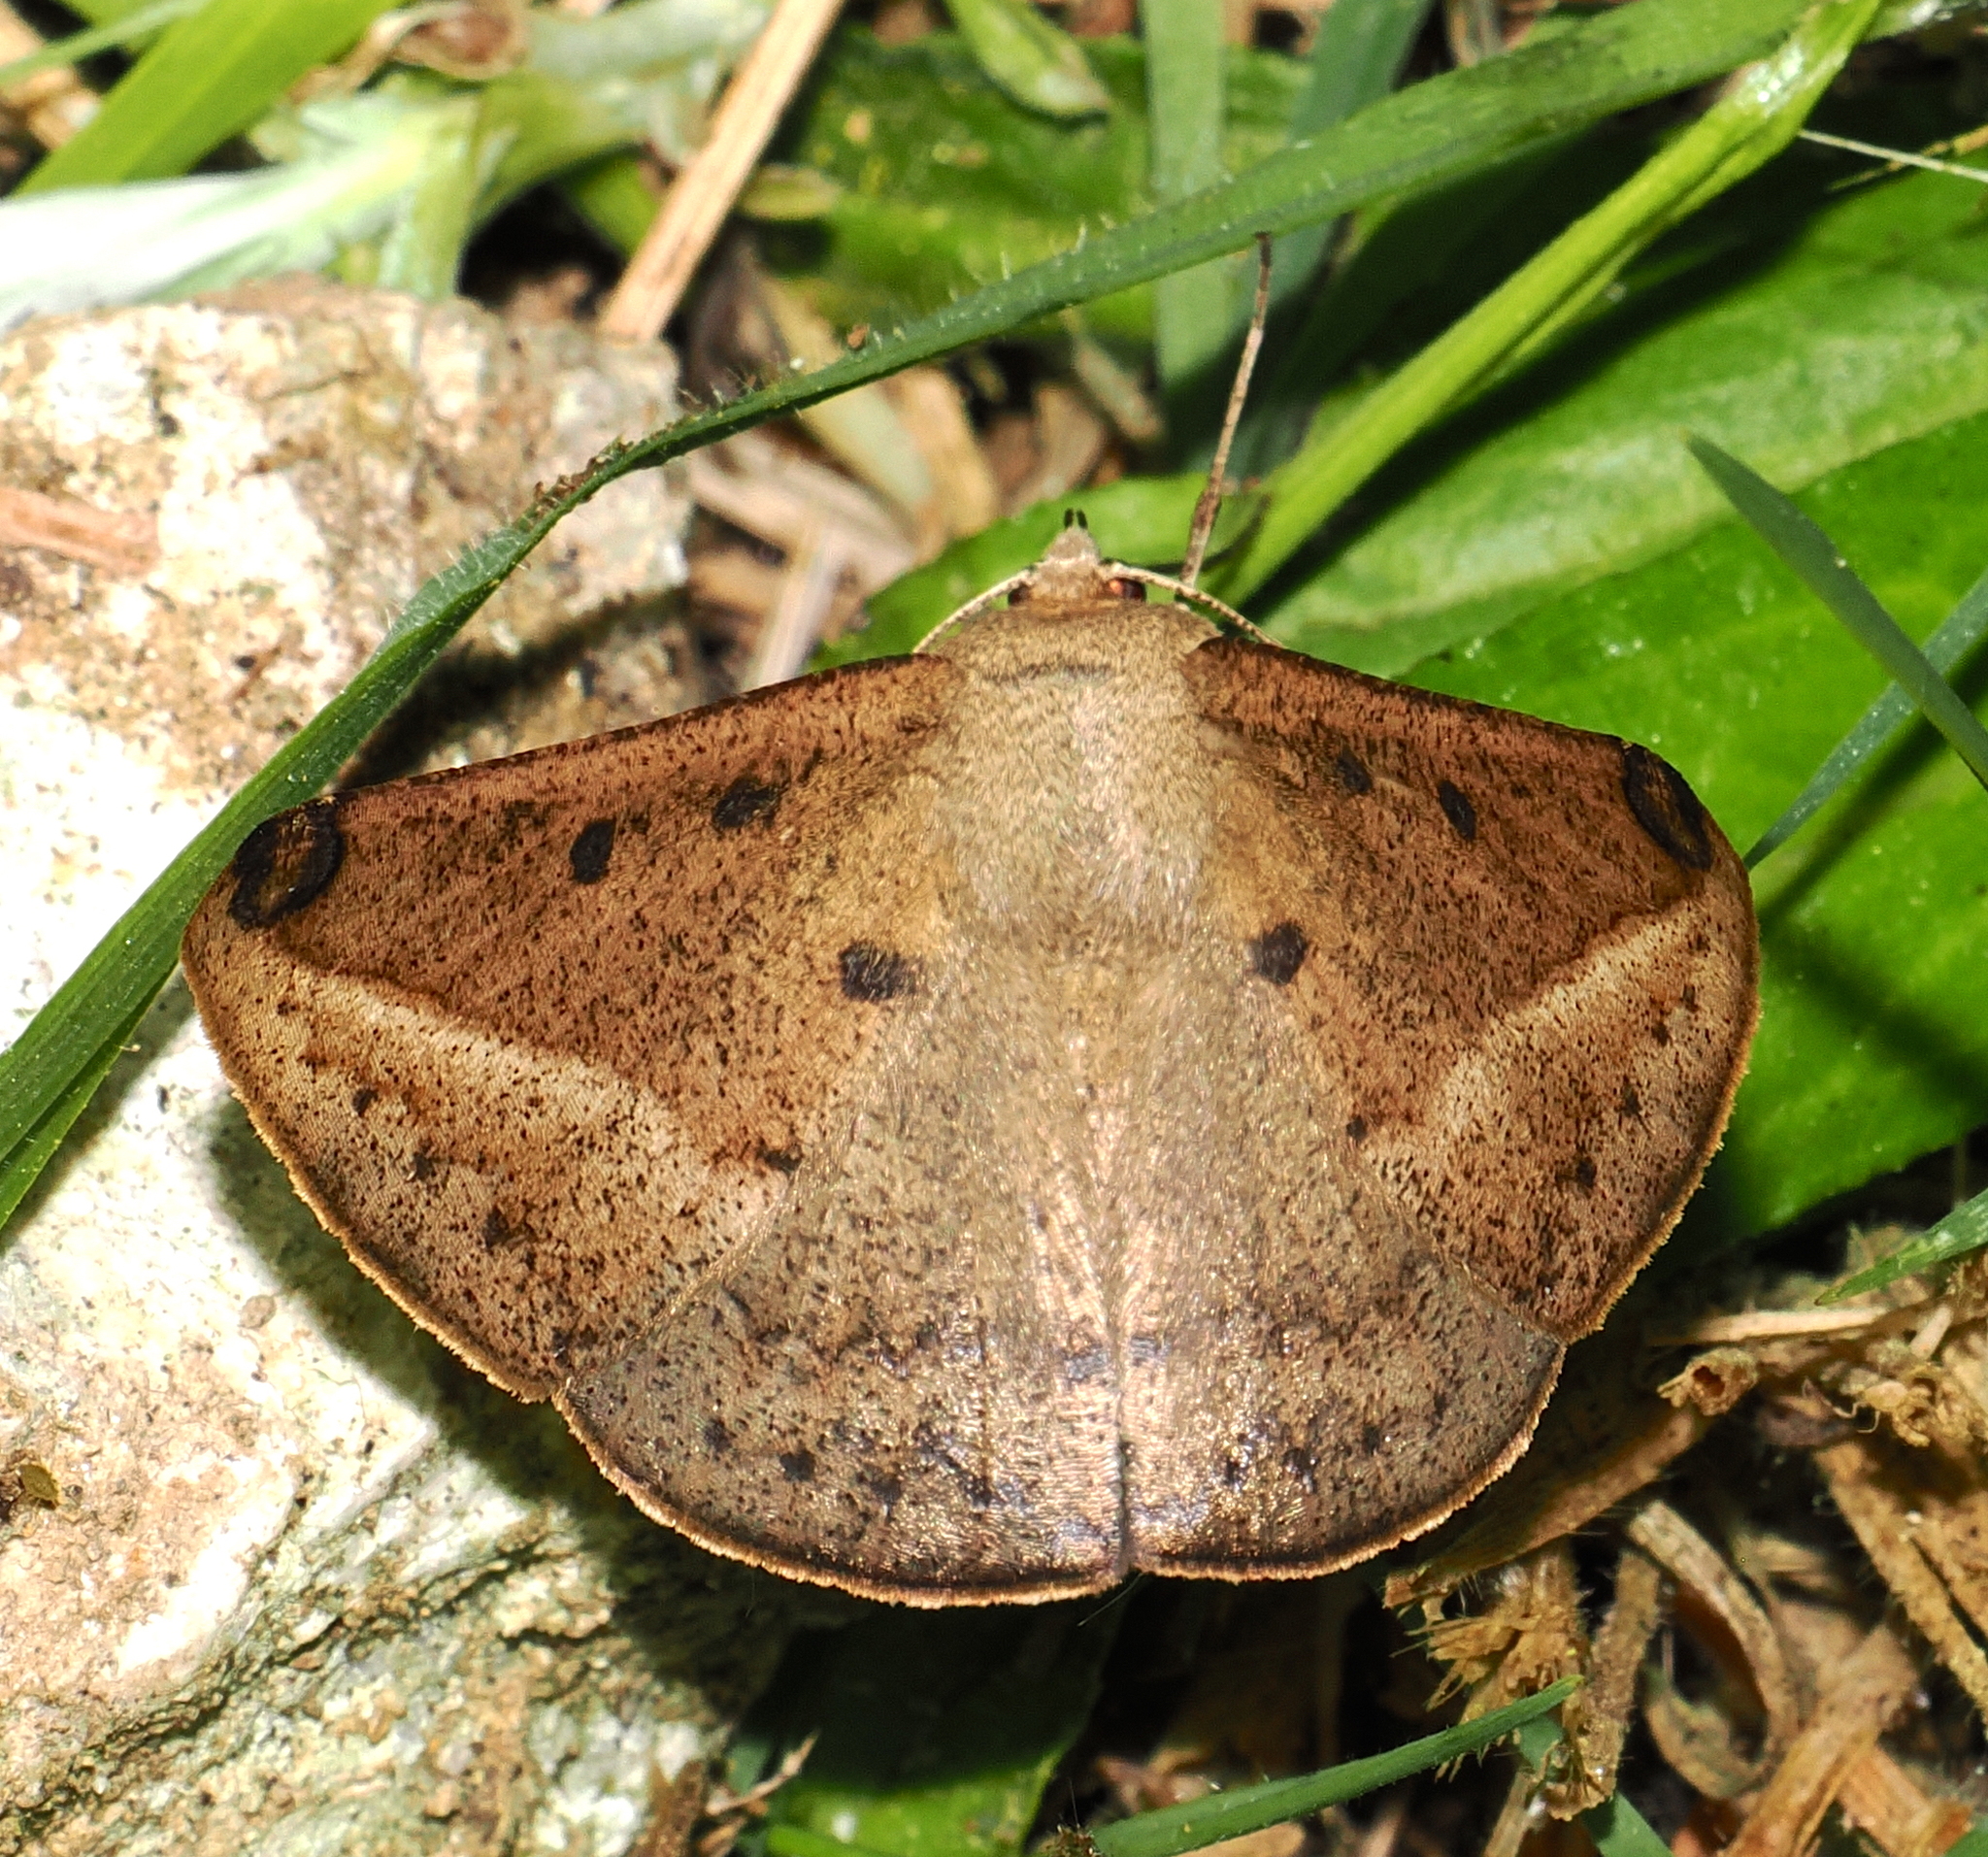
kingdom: Animalia
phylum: Arthropoda
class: Insecta
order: Lepidoptera
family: Geometridae
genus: Herbita
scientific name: Herbita quinquemaculata
